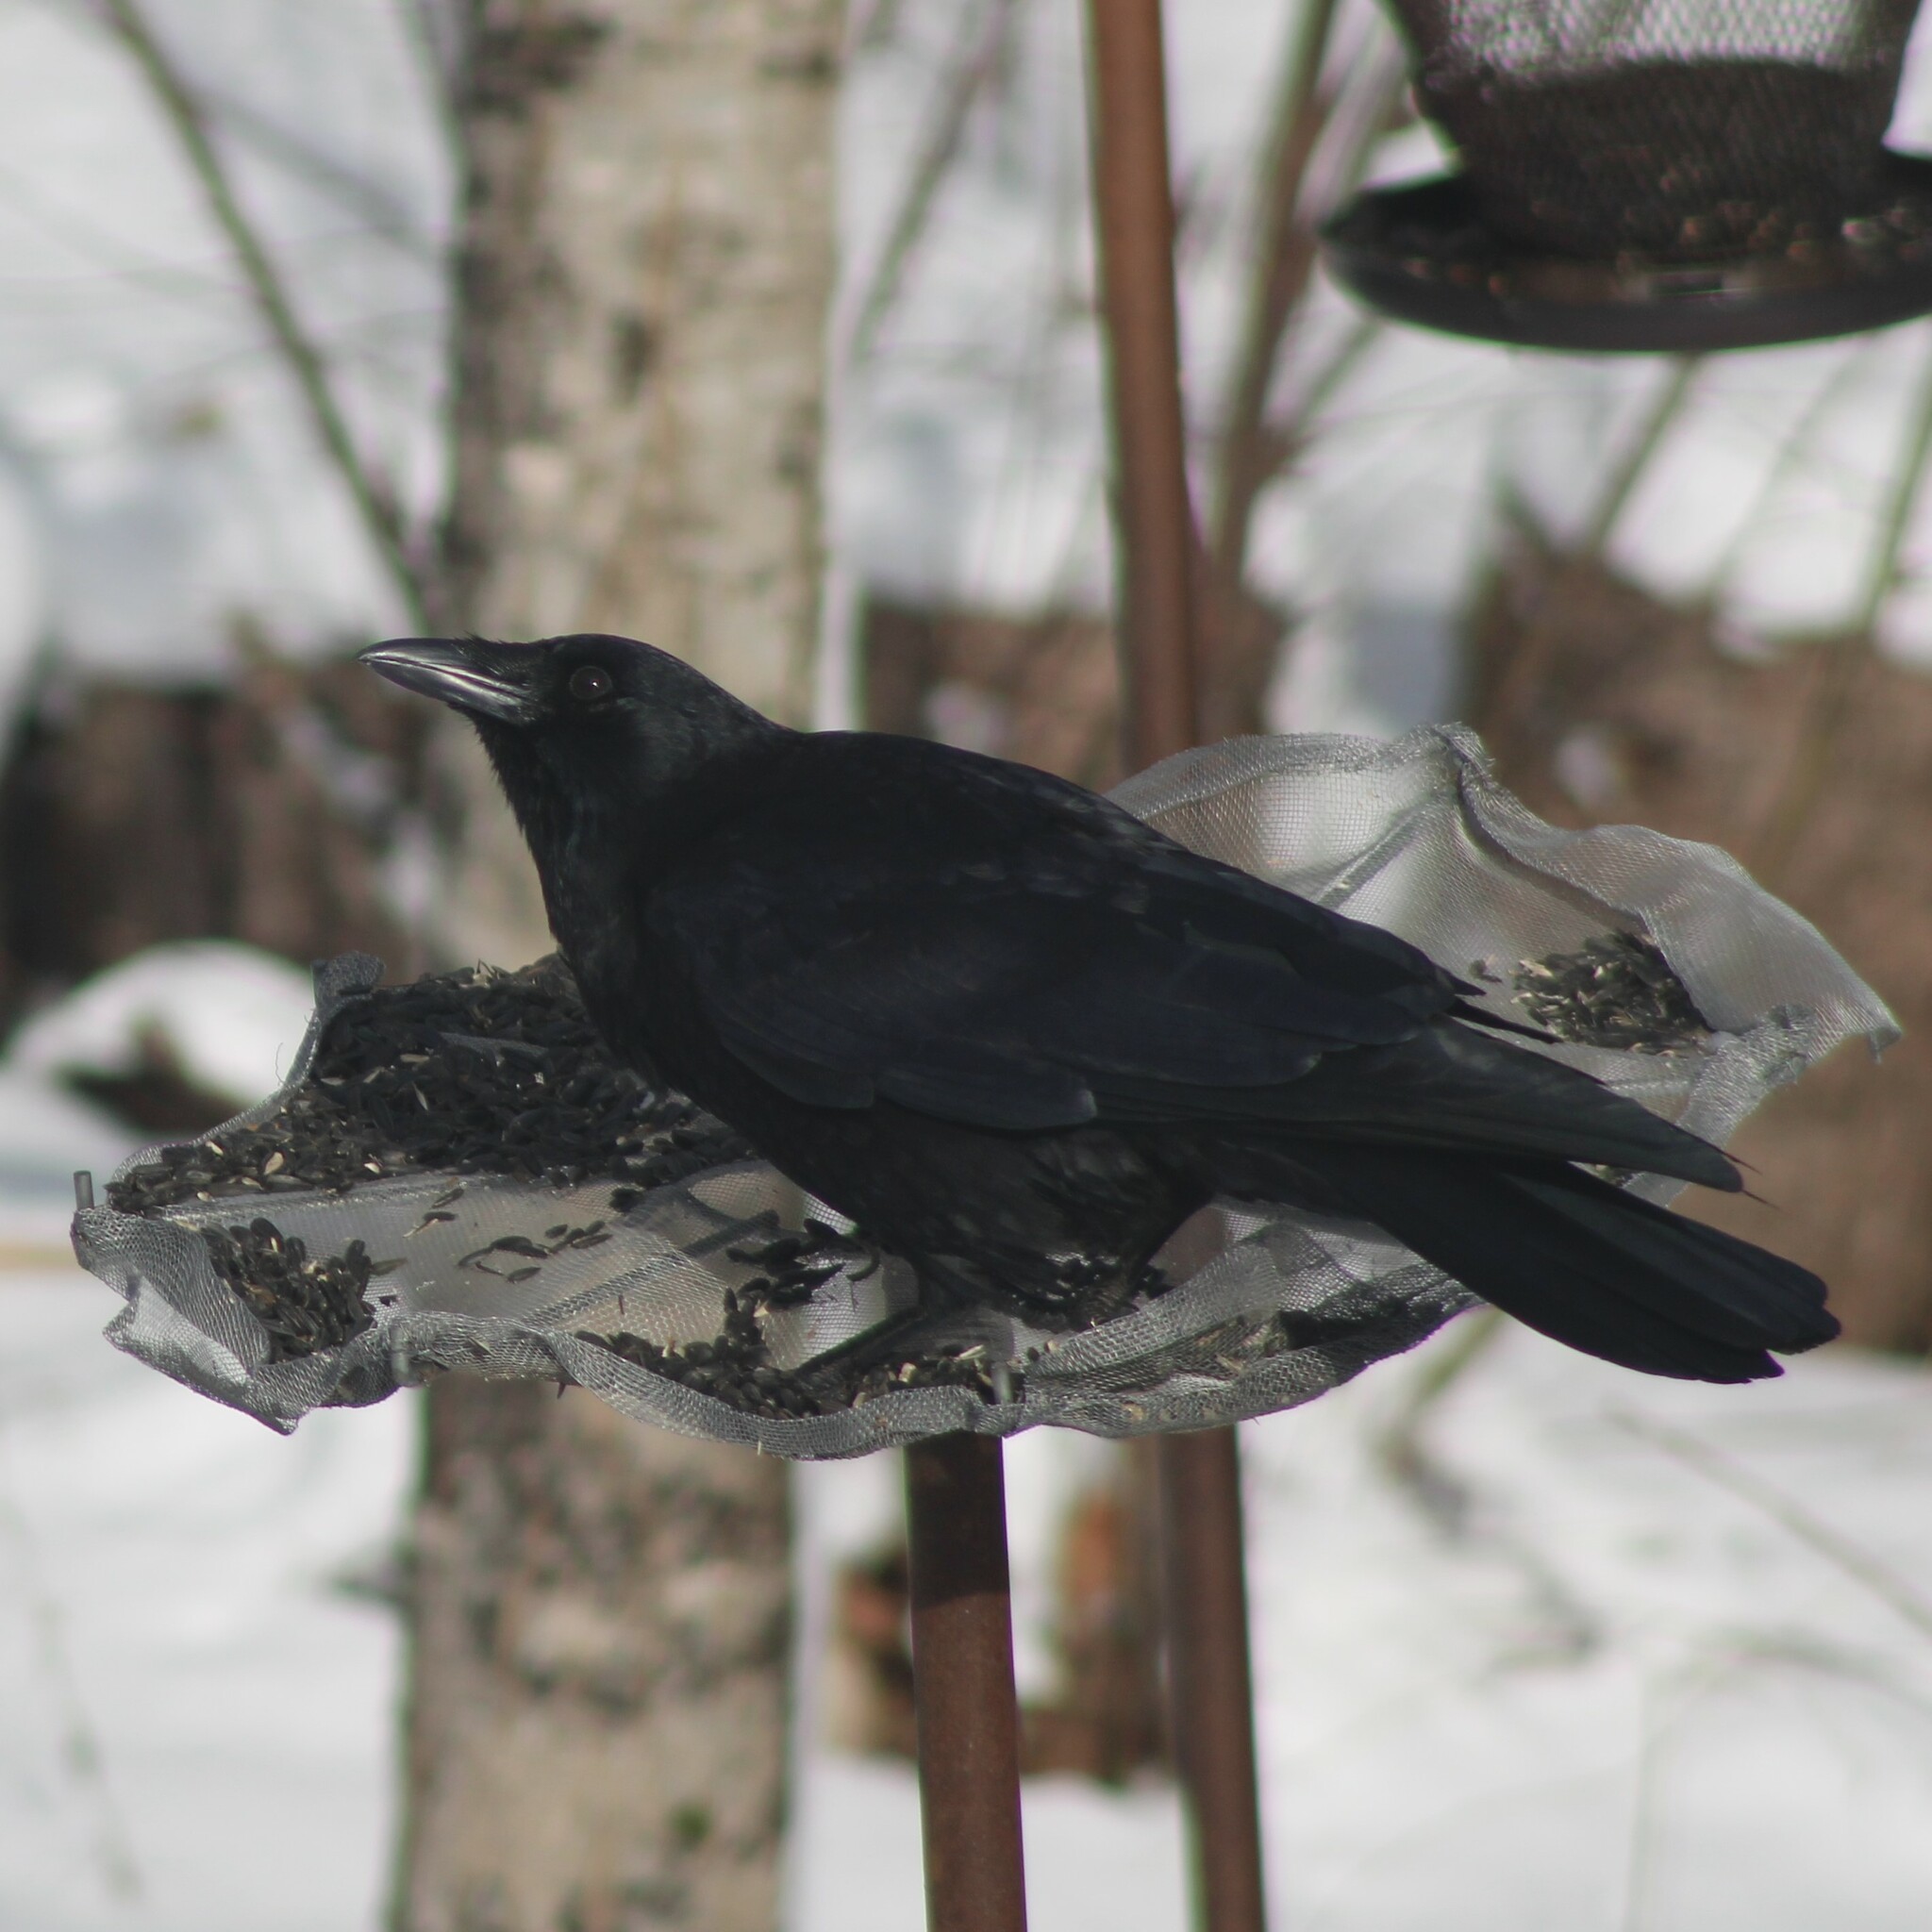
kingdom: Animalia
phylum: Chordata
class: Aves
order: Passeriformes
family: Corvidae
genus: Corvus
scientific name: Corvus brachyrhynchos
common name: American crow
